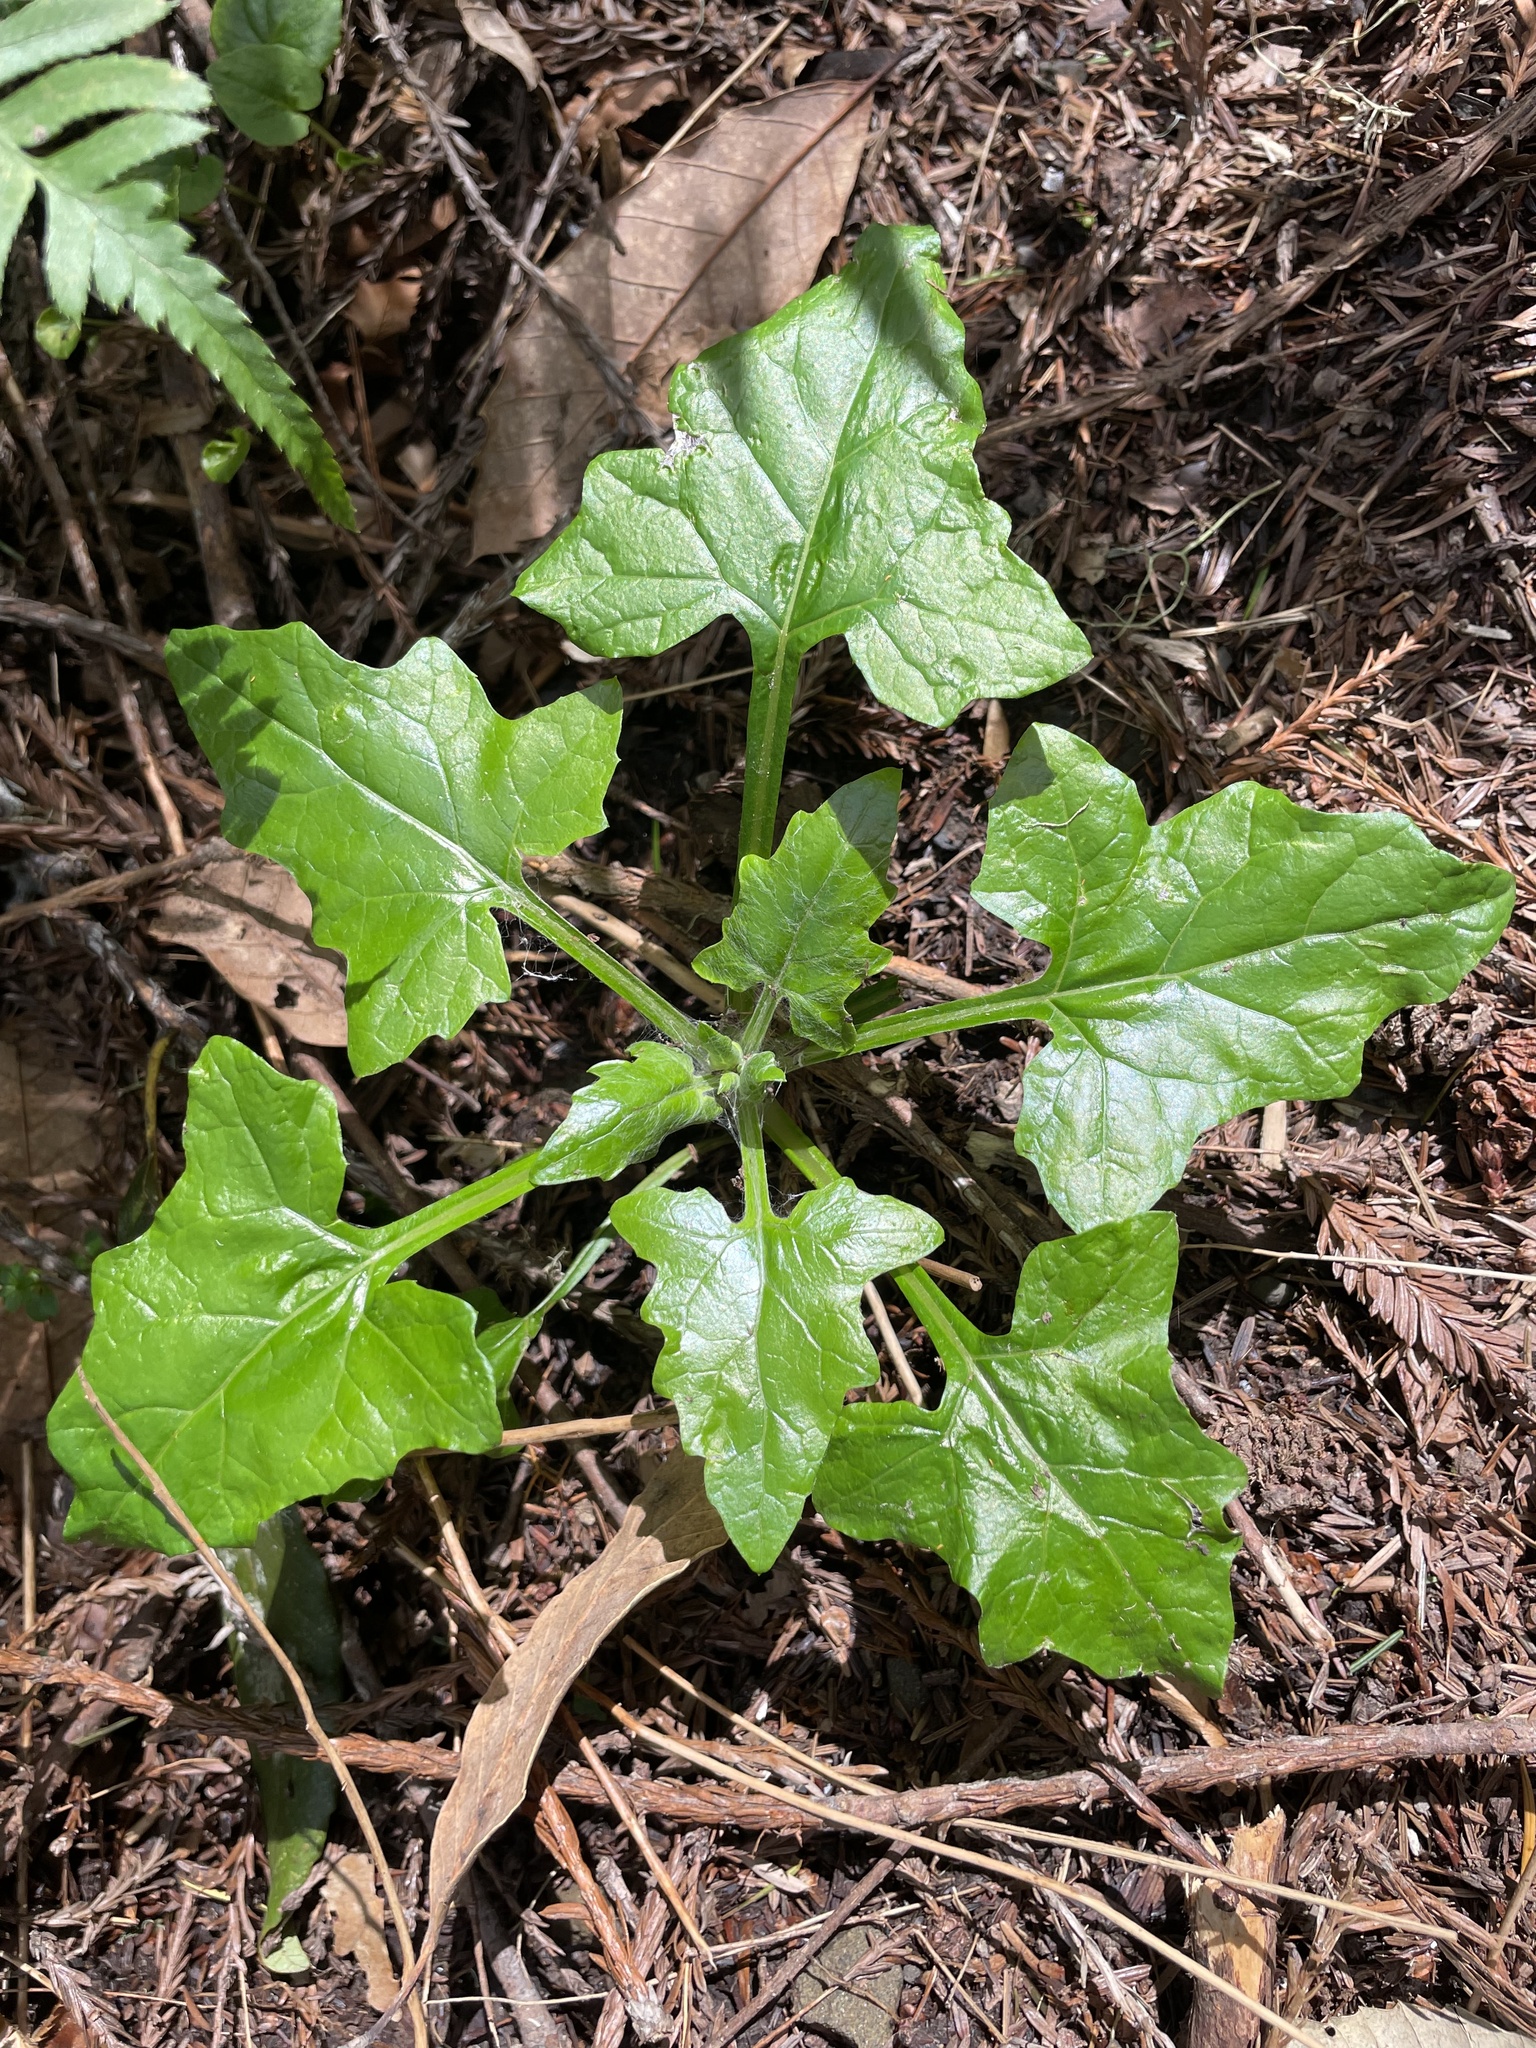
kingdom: Plantae
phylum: Tracheophyta
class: Magnoliopsida
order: Asterales
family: Asteraceae
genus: Adenocaulon
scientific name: Adenocaulon bicolor
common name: Trailplant
